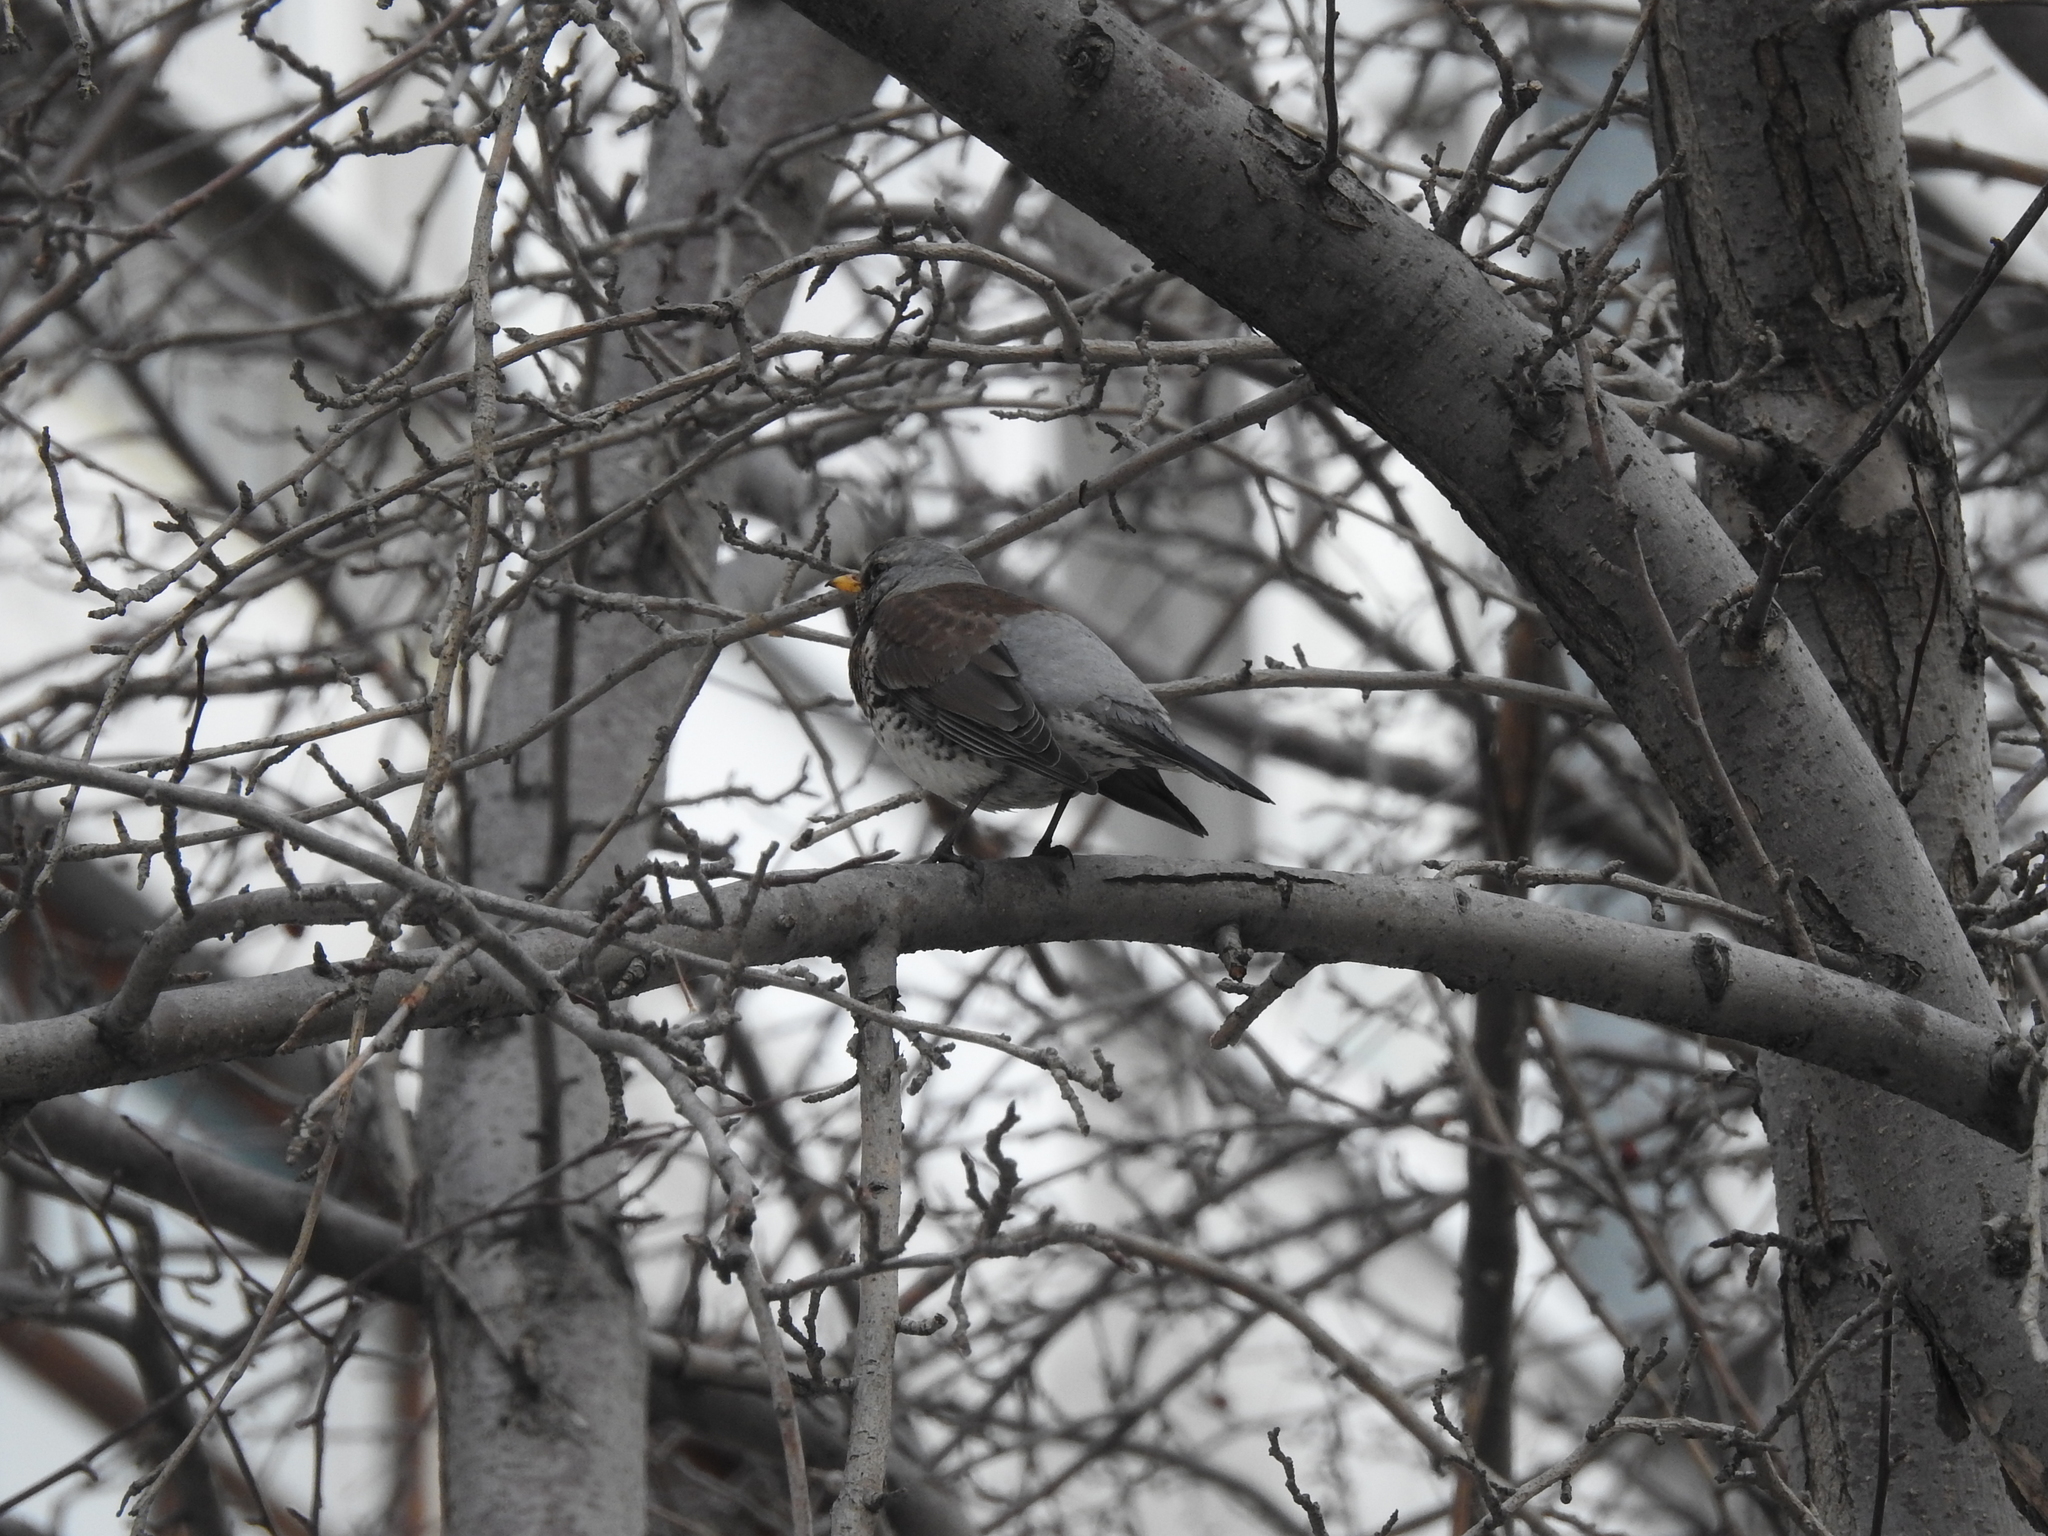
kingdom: Animalia
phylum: Chordata
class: Aves
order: Passeriformes
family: Turdidae
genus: Turdus
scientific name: Turdus pilaris
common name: Fieldfare
